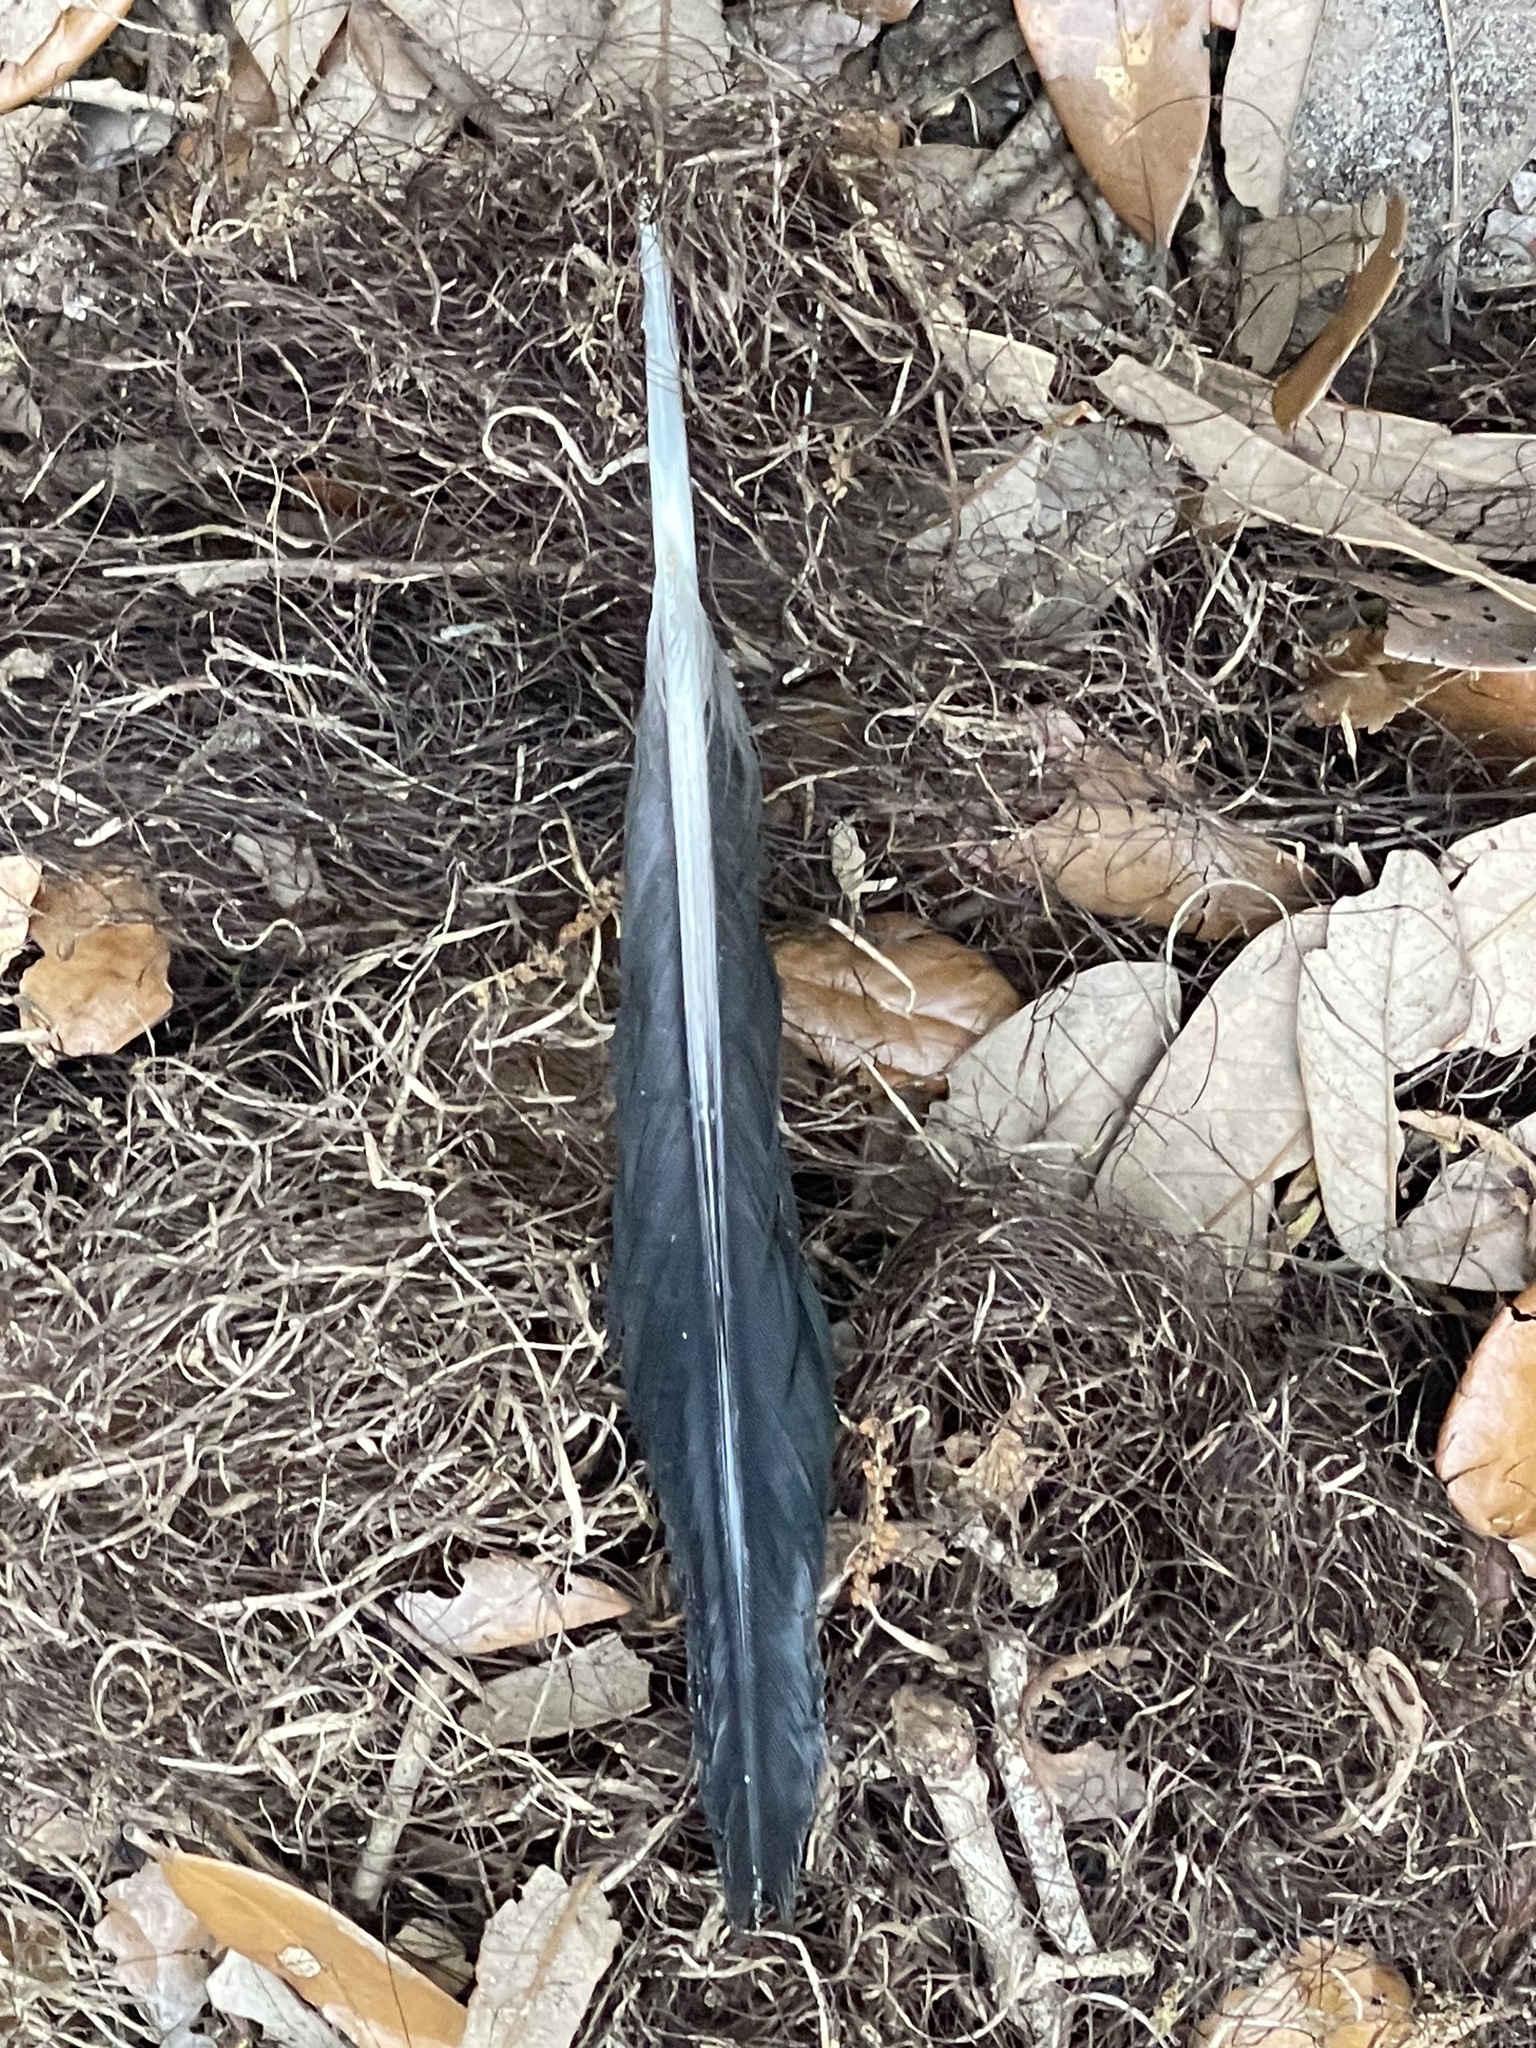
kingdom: Animalia
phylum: Chordata
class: Aves
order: Piciformes
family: Picidae
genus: Dryocopus
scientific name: Dryocopus pileatus
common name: Pileated woodpecker
